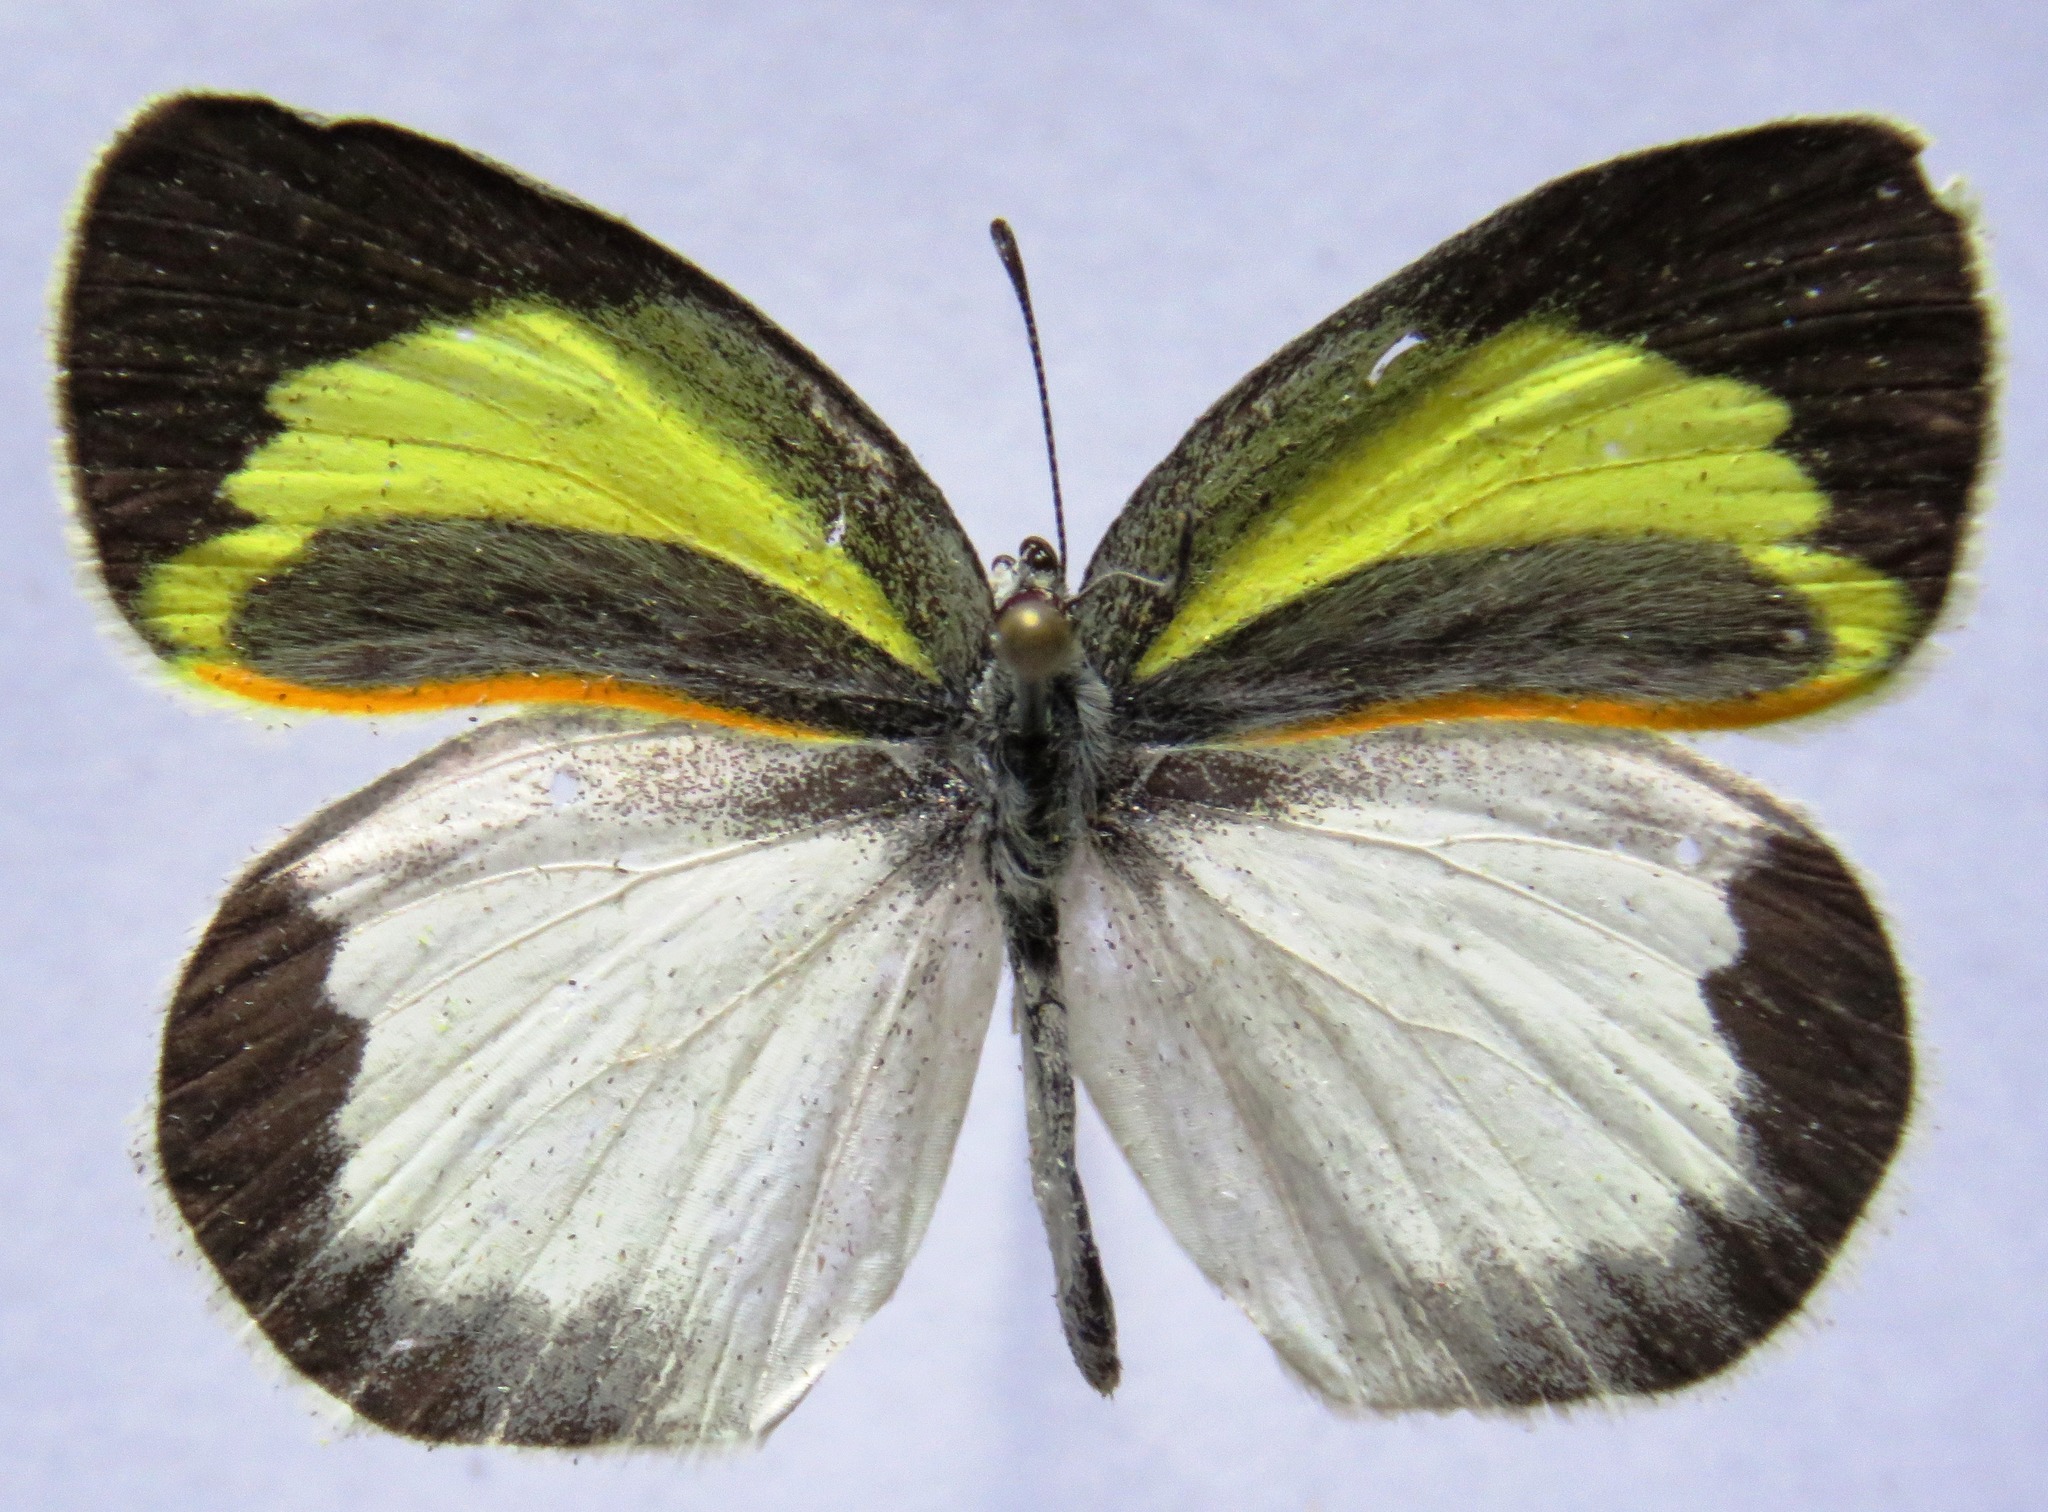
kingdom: Animalia
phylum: Arthropoda
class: Insecta
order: Lepidoptera
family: Pieridae
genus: Eurema
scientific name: Eurema daira
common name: Barred sulphur
